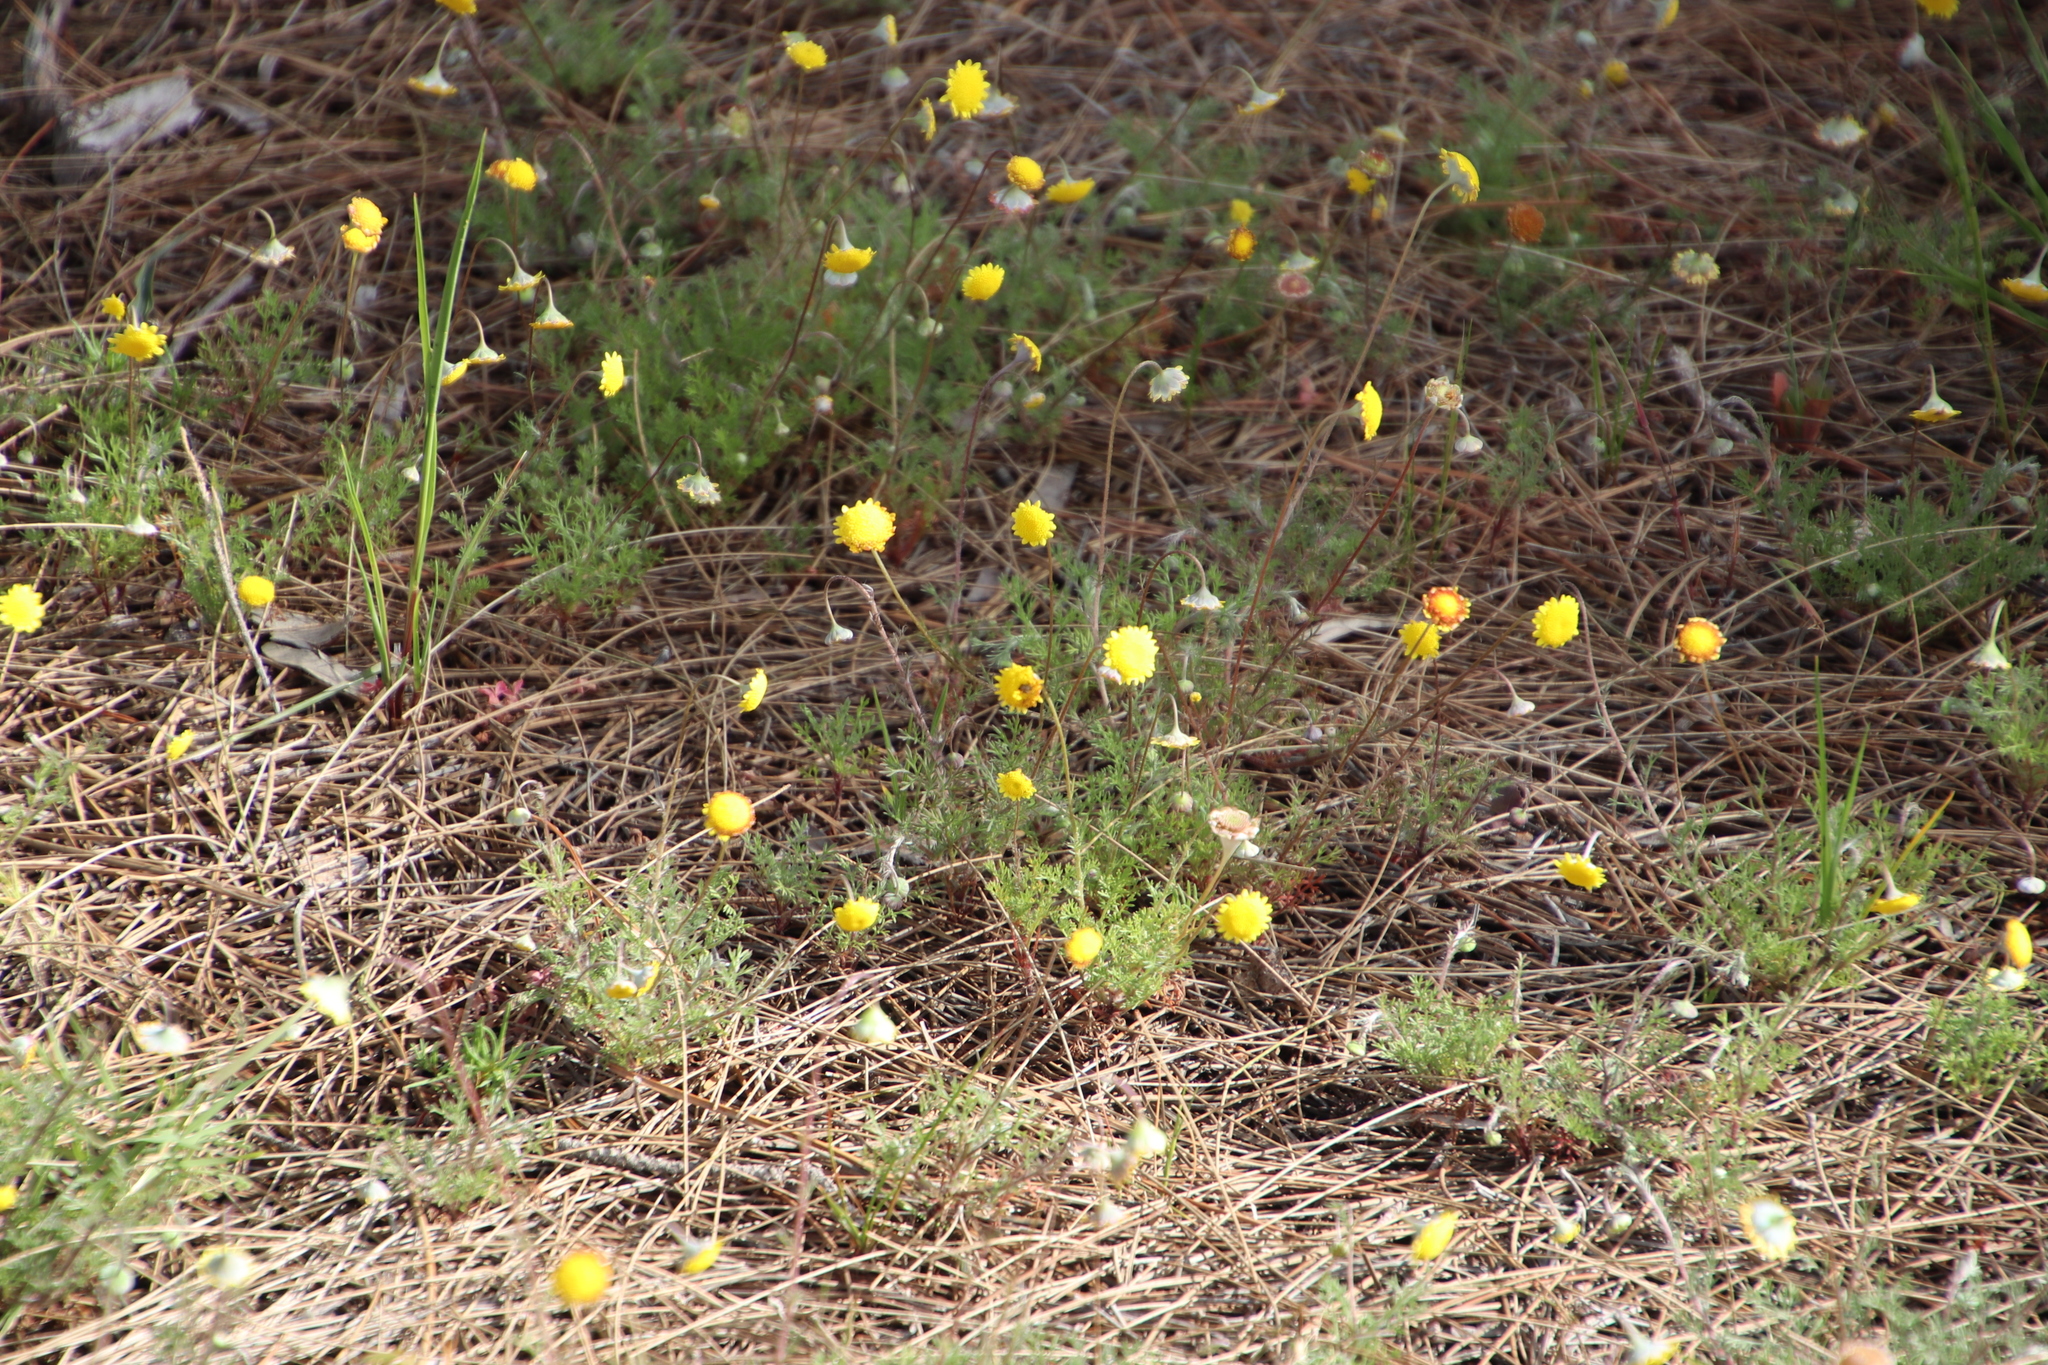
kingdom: Plantae
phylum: Tracheophyta
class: Magnoliopsida
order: Asterales
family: Asteraceae
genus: Cotula
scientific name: Cotula pruinosa
